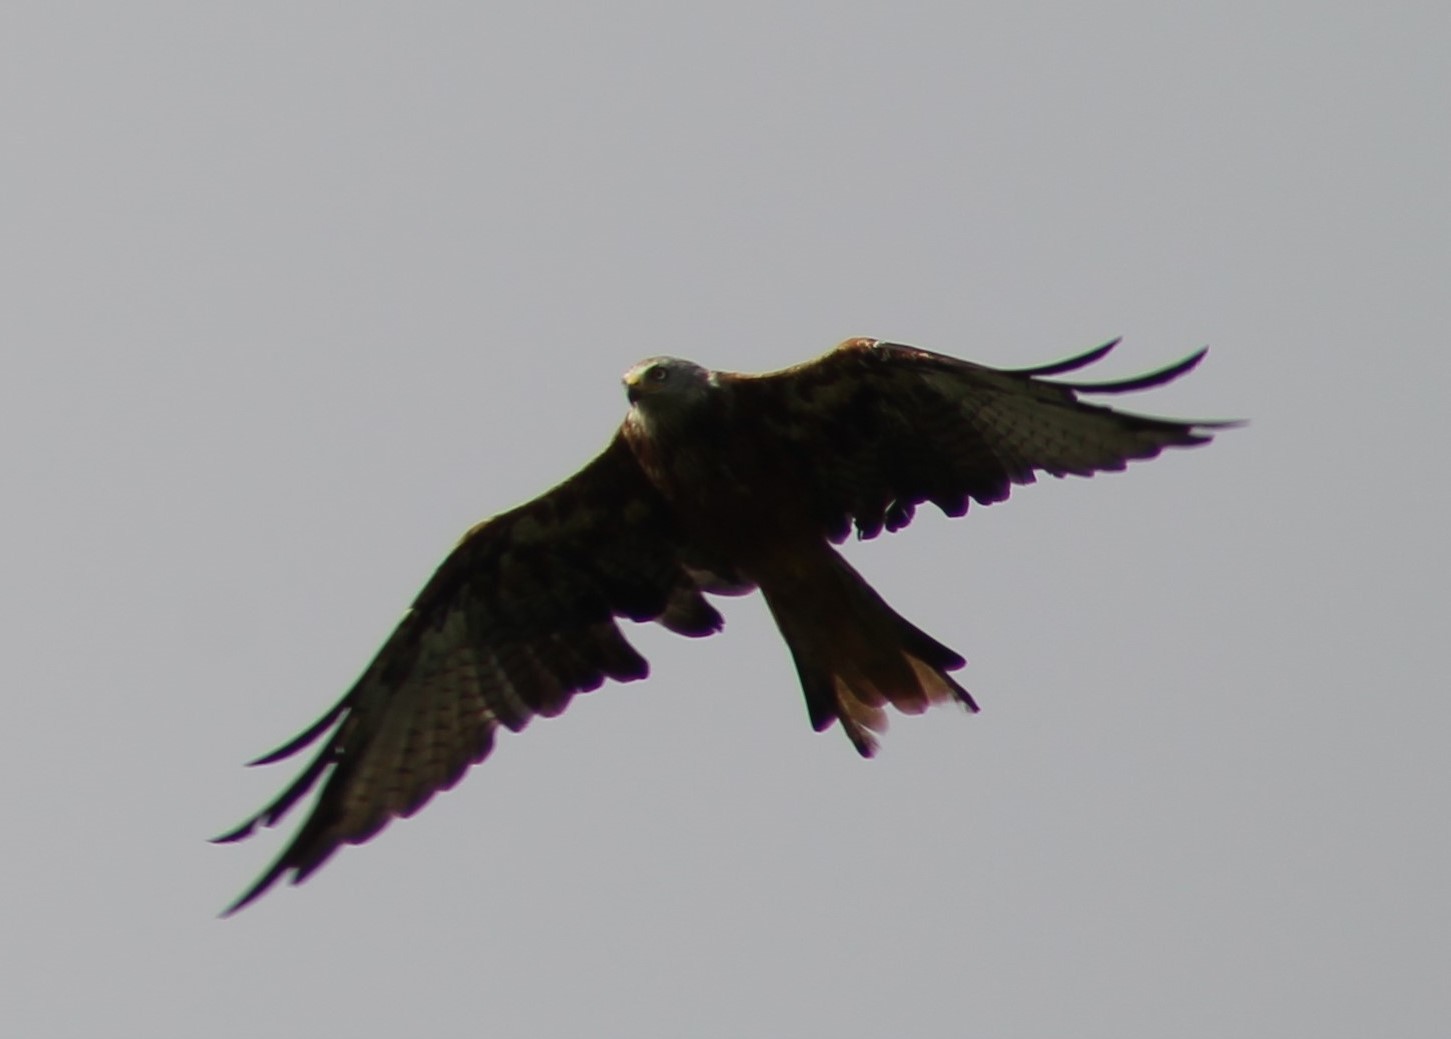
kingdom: Animalia
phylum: Chordata
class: Aves
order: Accipitriformes
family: Accipitridae
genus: Milvus
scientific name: Milvus milvus
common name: Red kite
